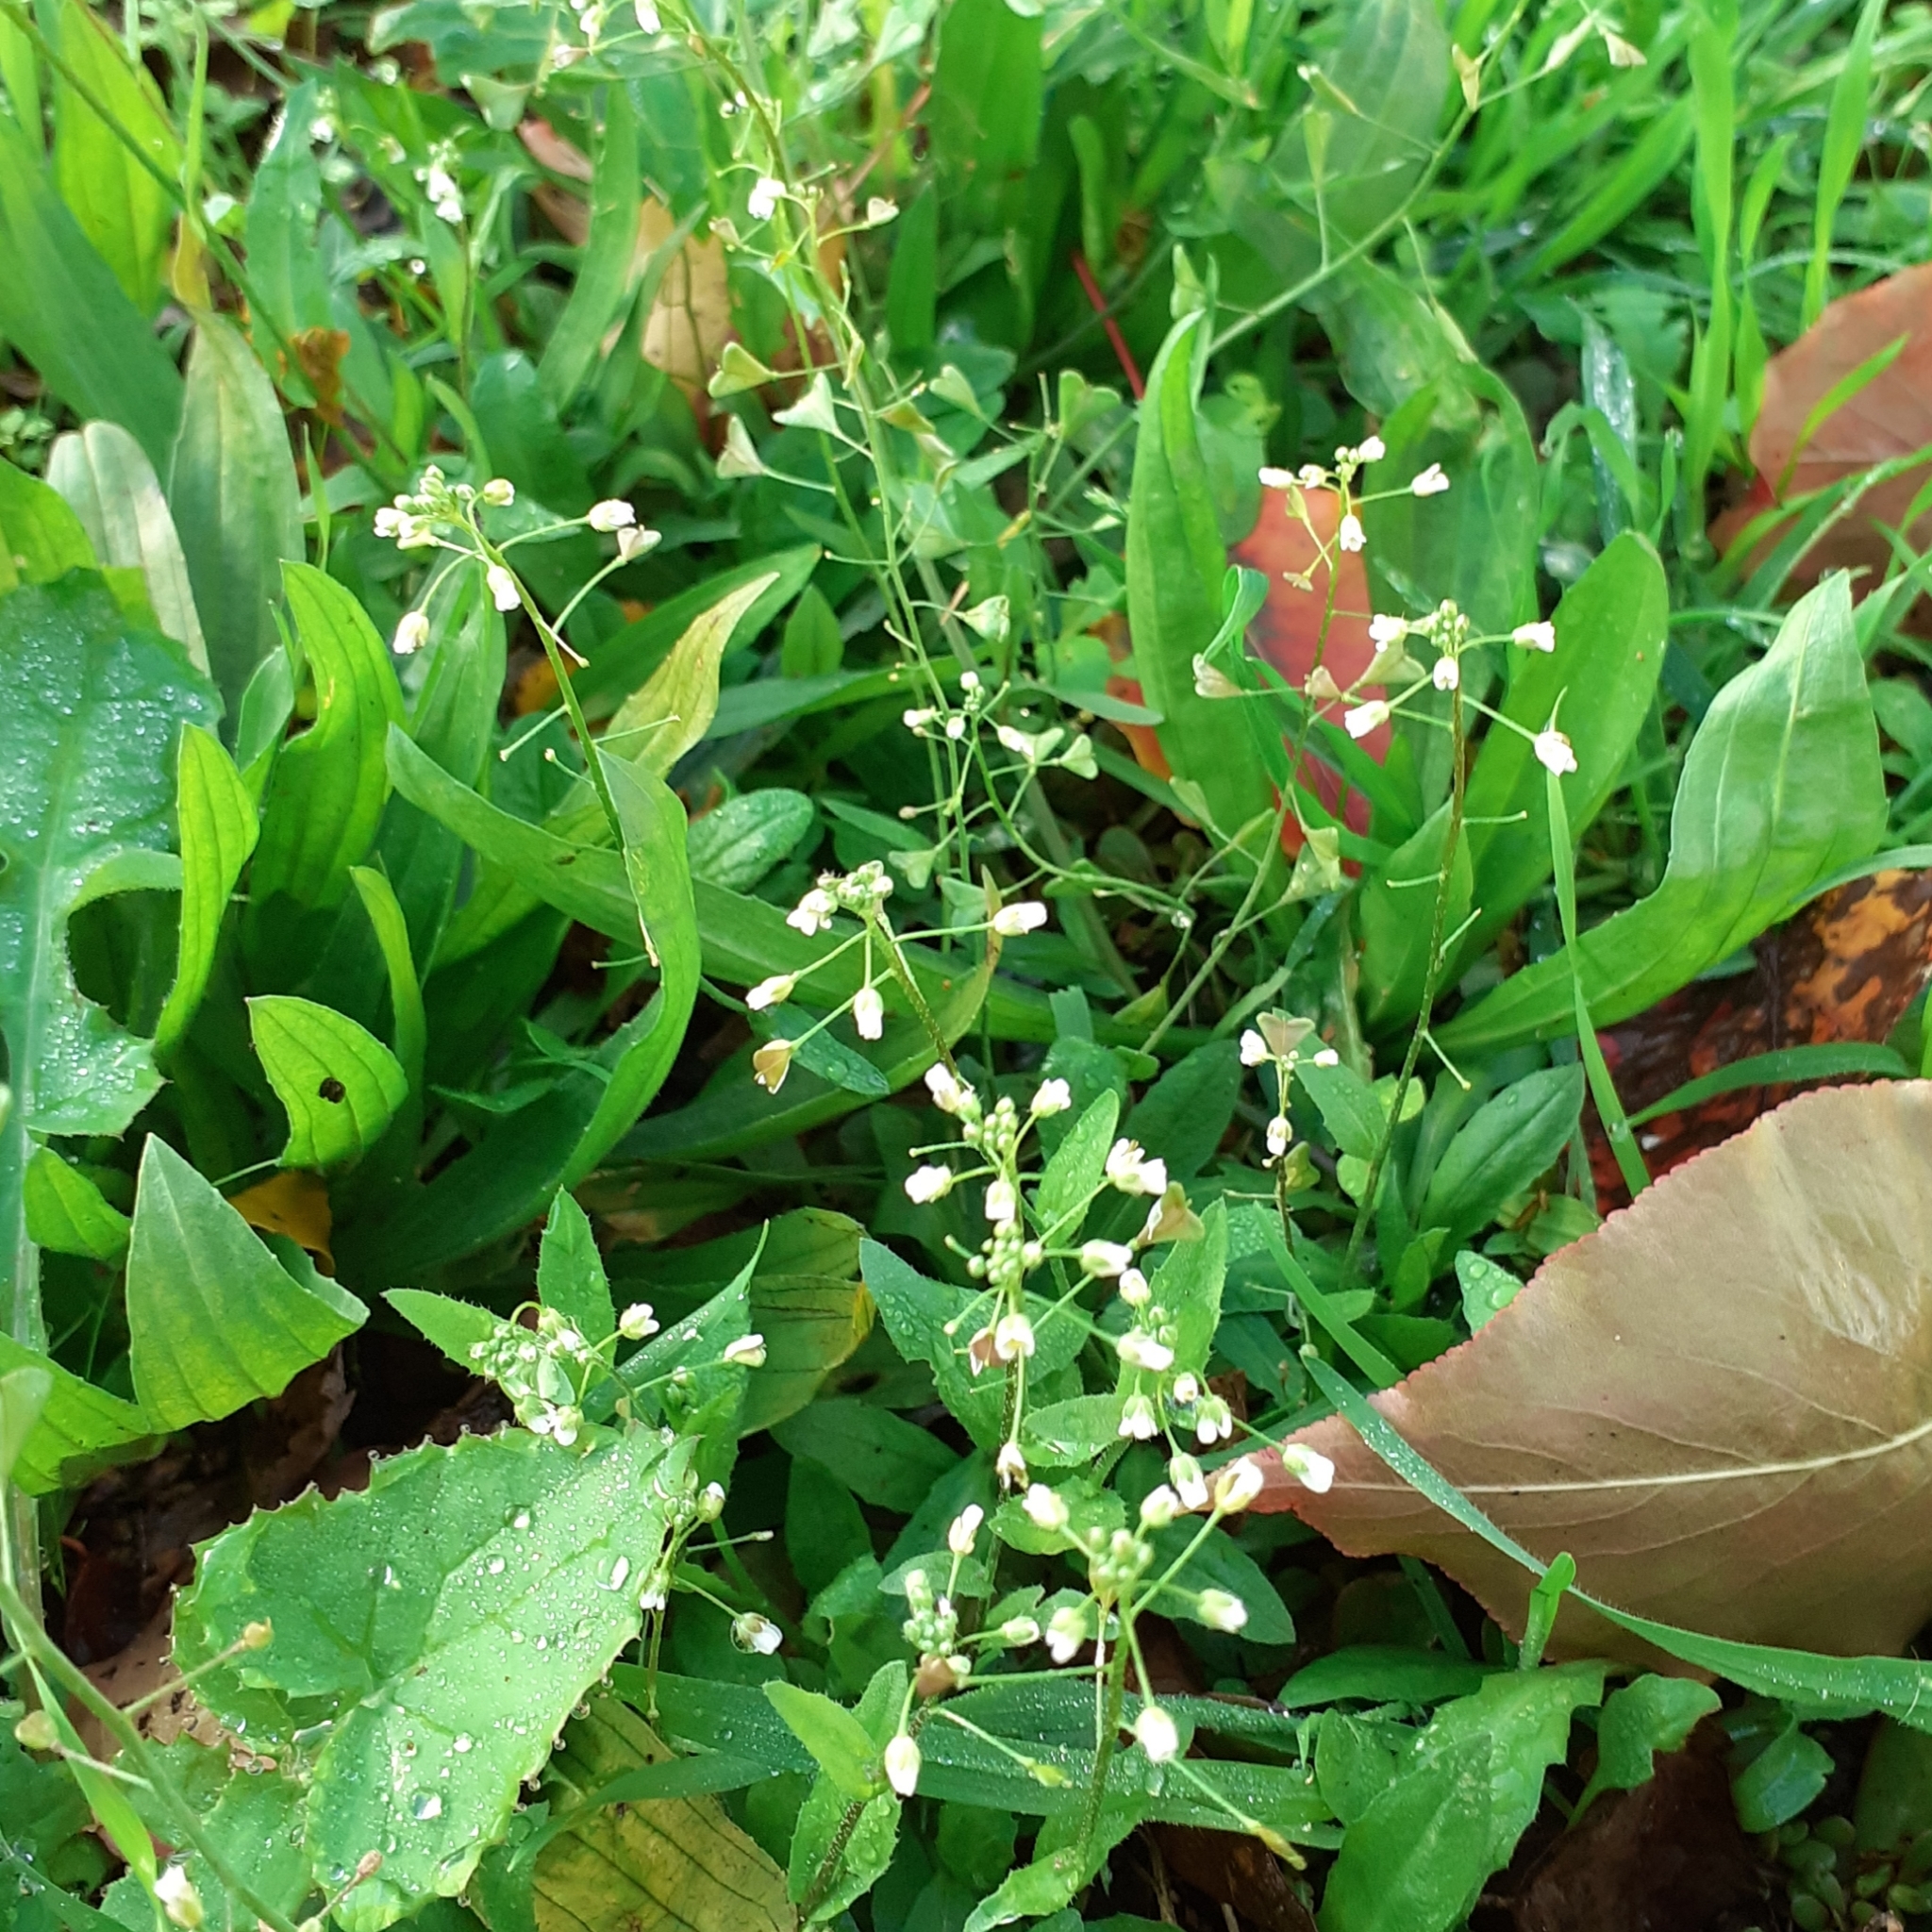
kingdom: Plantae
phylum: Tracheophyta
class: Magnoliopsida
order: Brassicales
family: Brassicaceae
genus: Capsella
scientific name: Capsella bursa-pastoris
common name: Shepherd's purse
